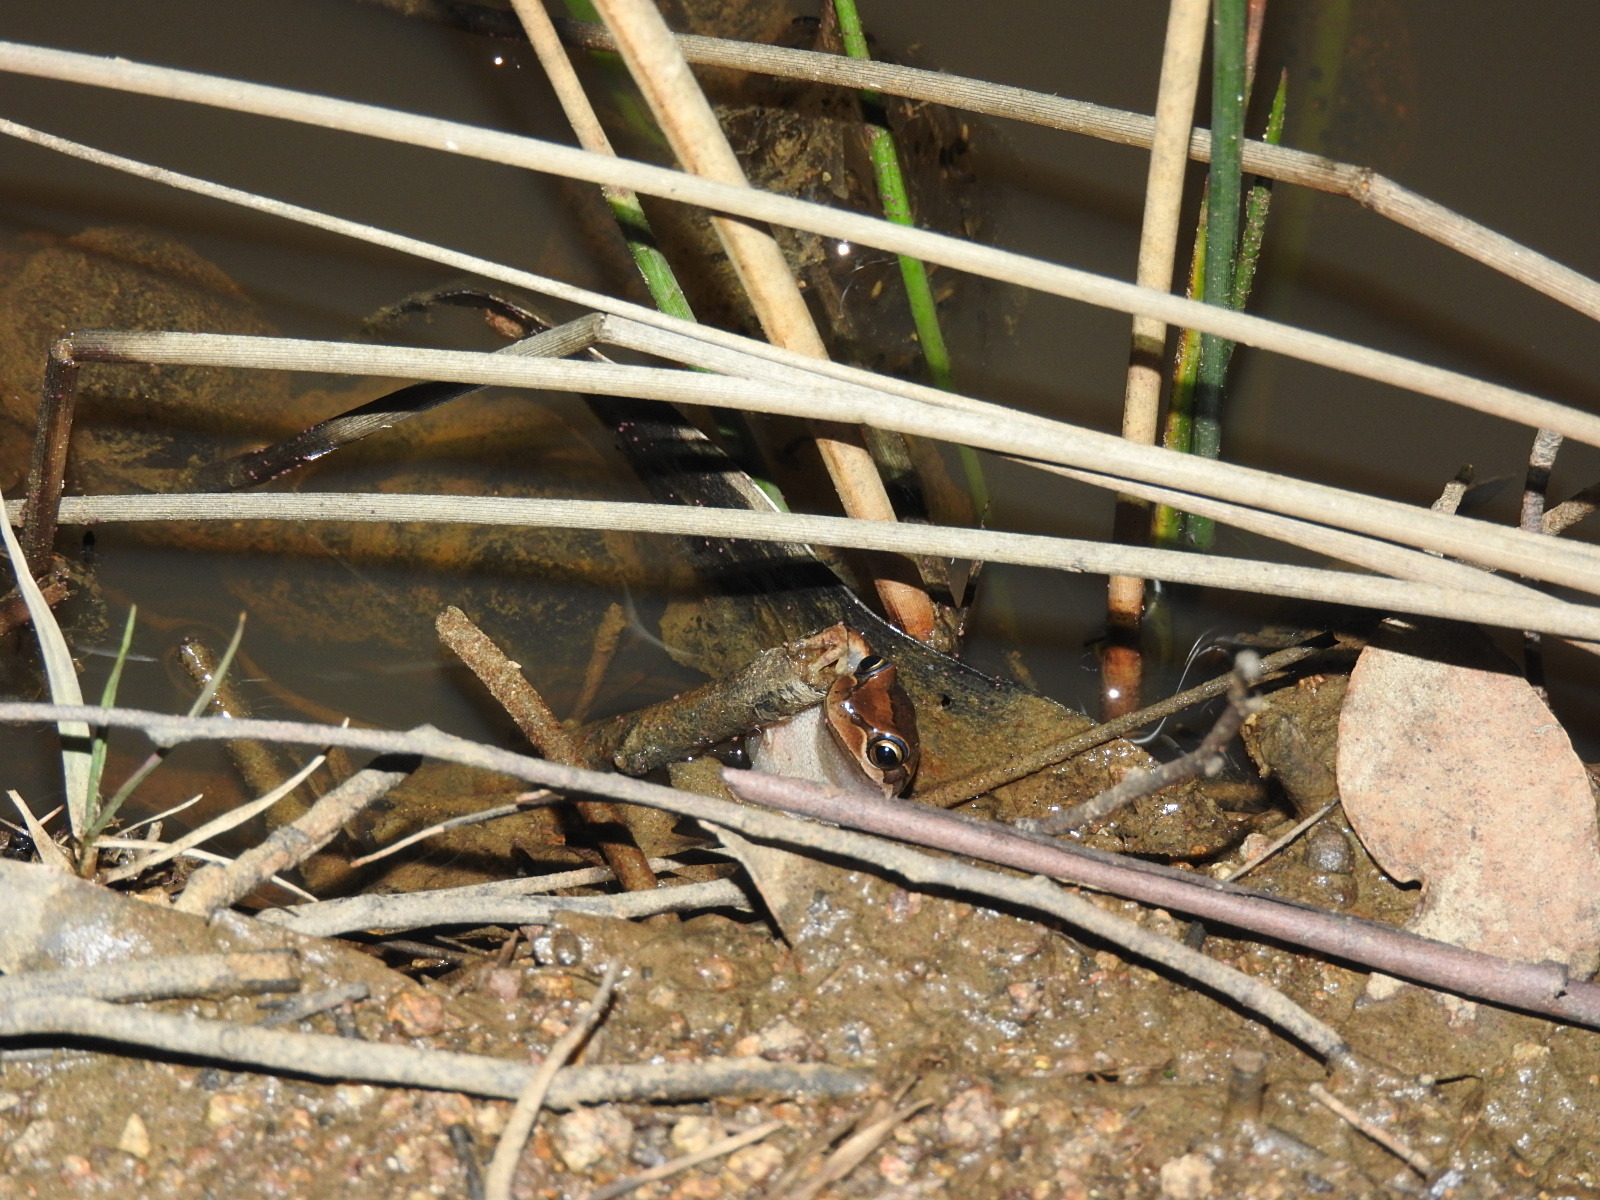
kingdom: Animalia
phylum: Chordata
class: Amphibia
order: Anura
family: Pelodryadidae
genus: Litoria
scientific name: Litoria ewingii
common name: Southern brown tree frog
